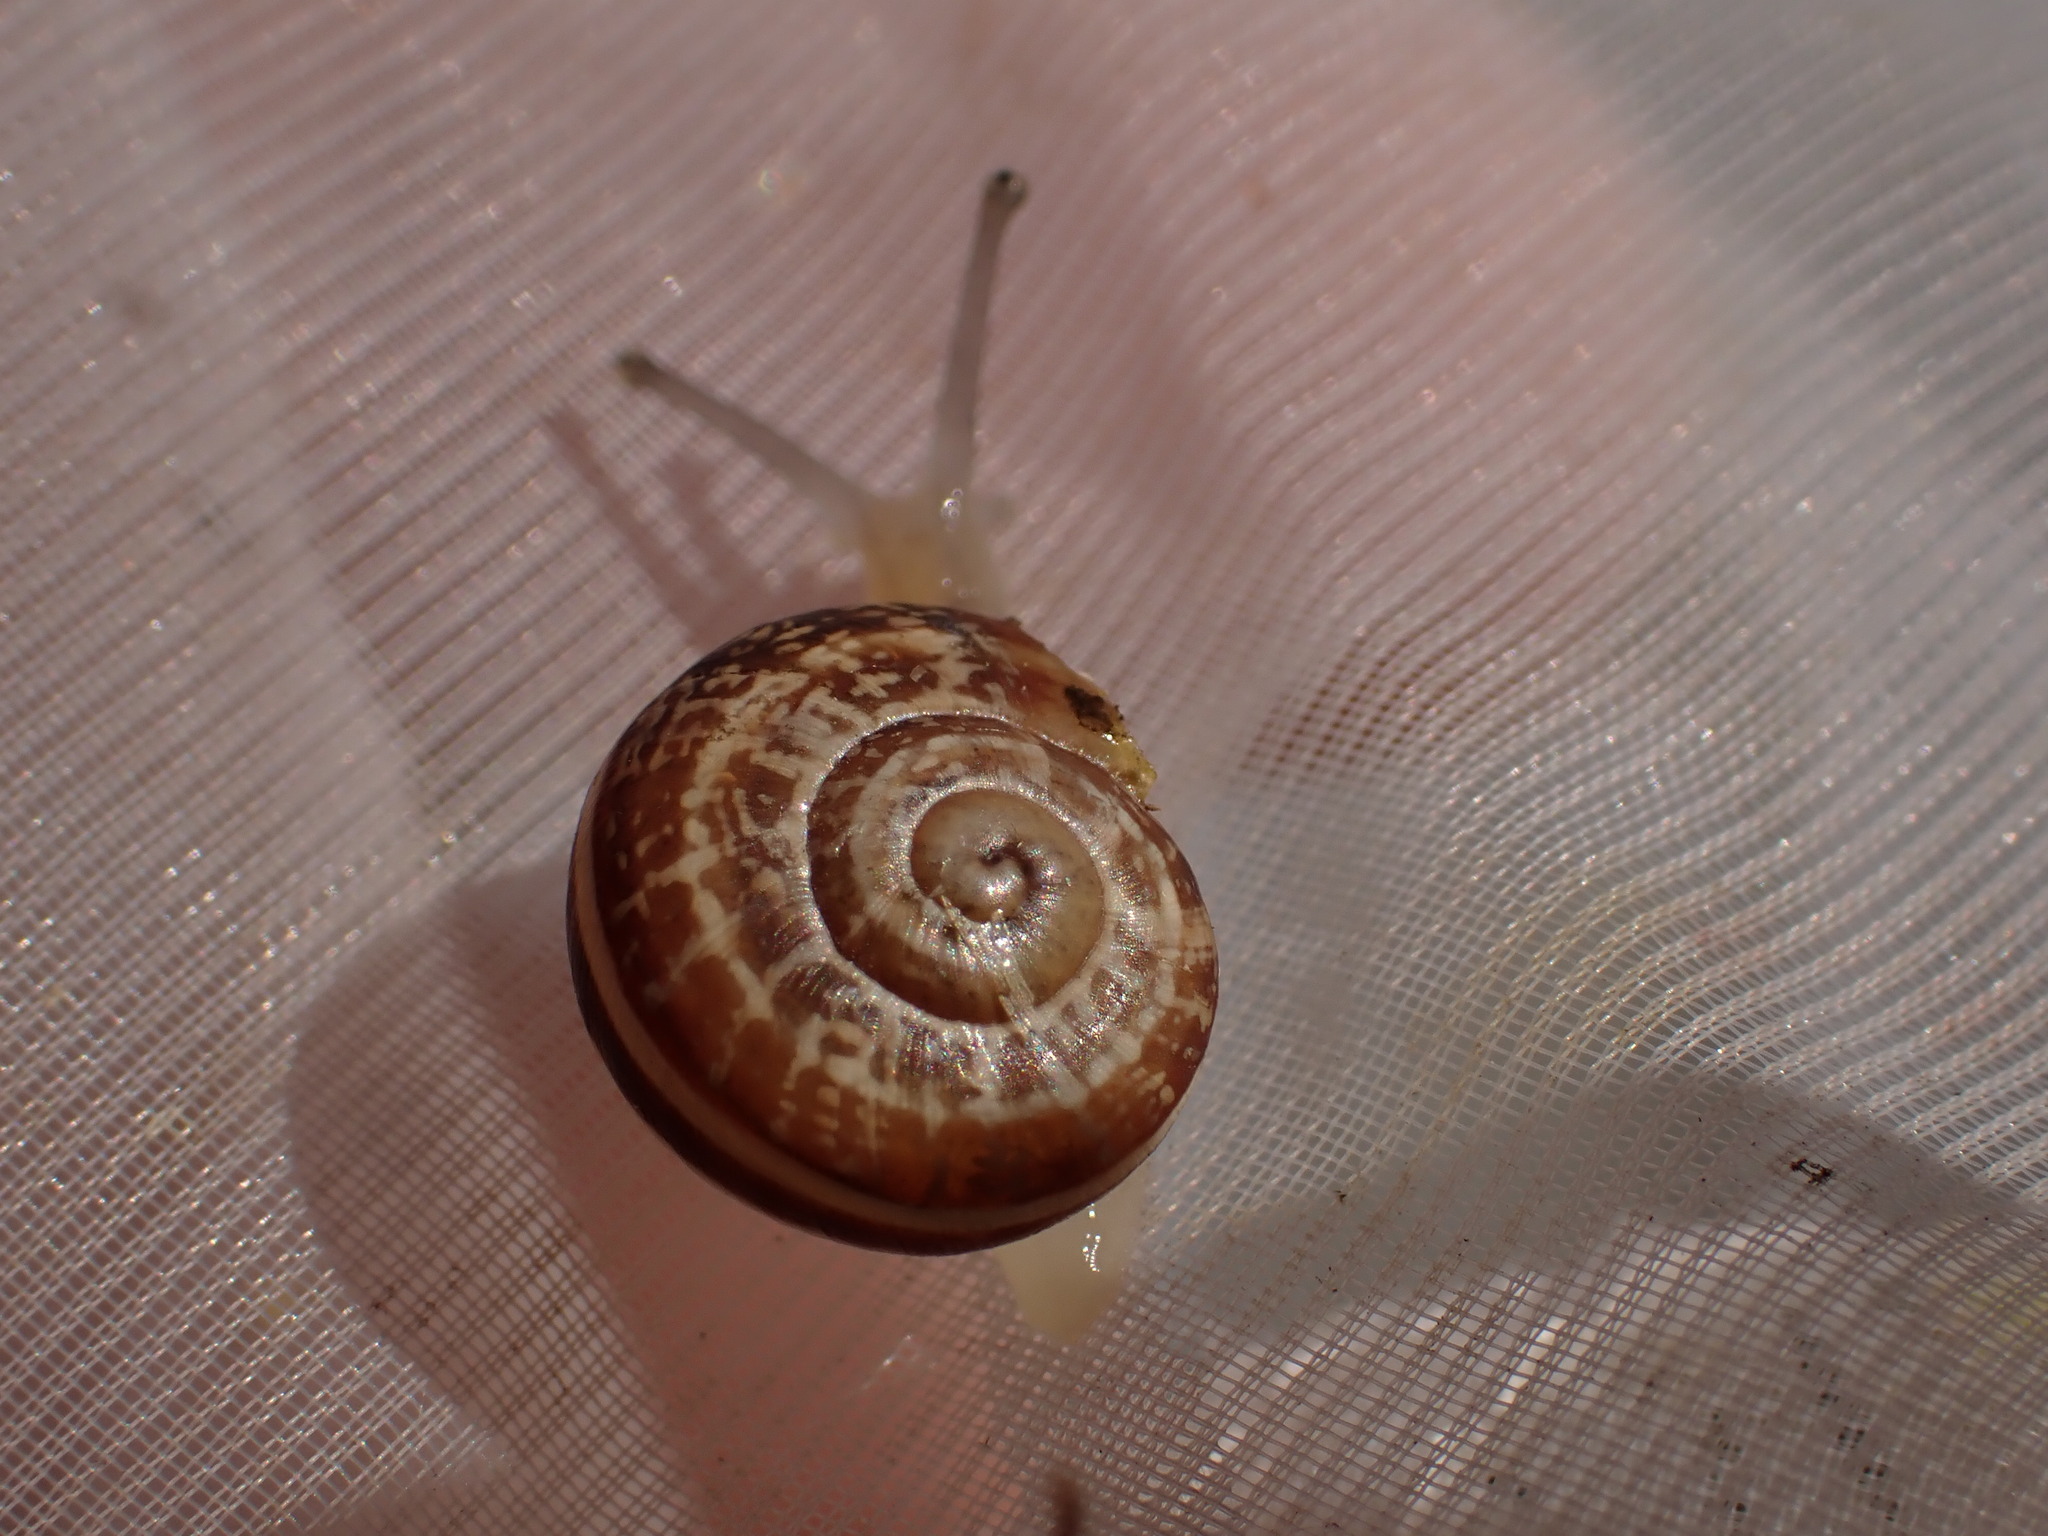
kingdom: Animalia
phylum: Mollusca
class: Gastropoda
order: Stylommatophora
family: Helicidae
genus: Eobania
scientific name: Eobania vermiculata
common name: Chocolateband snail
